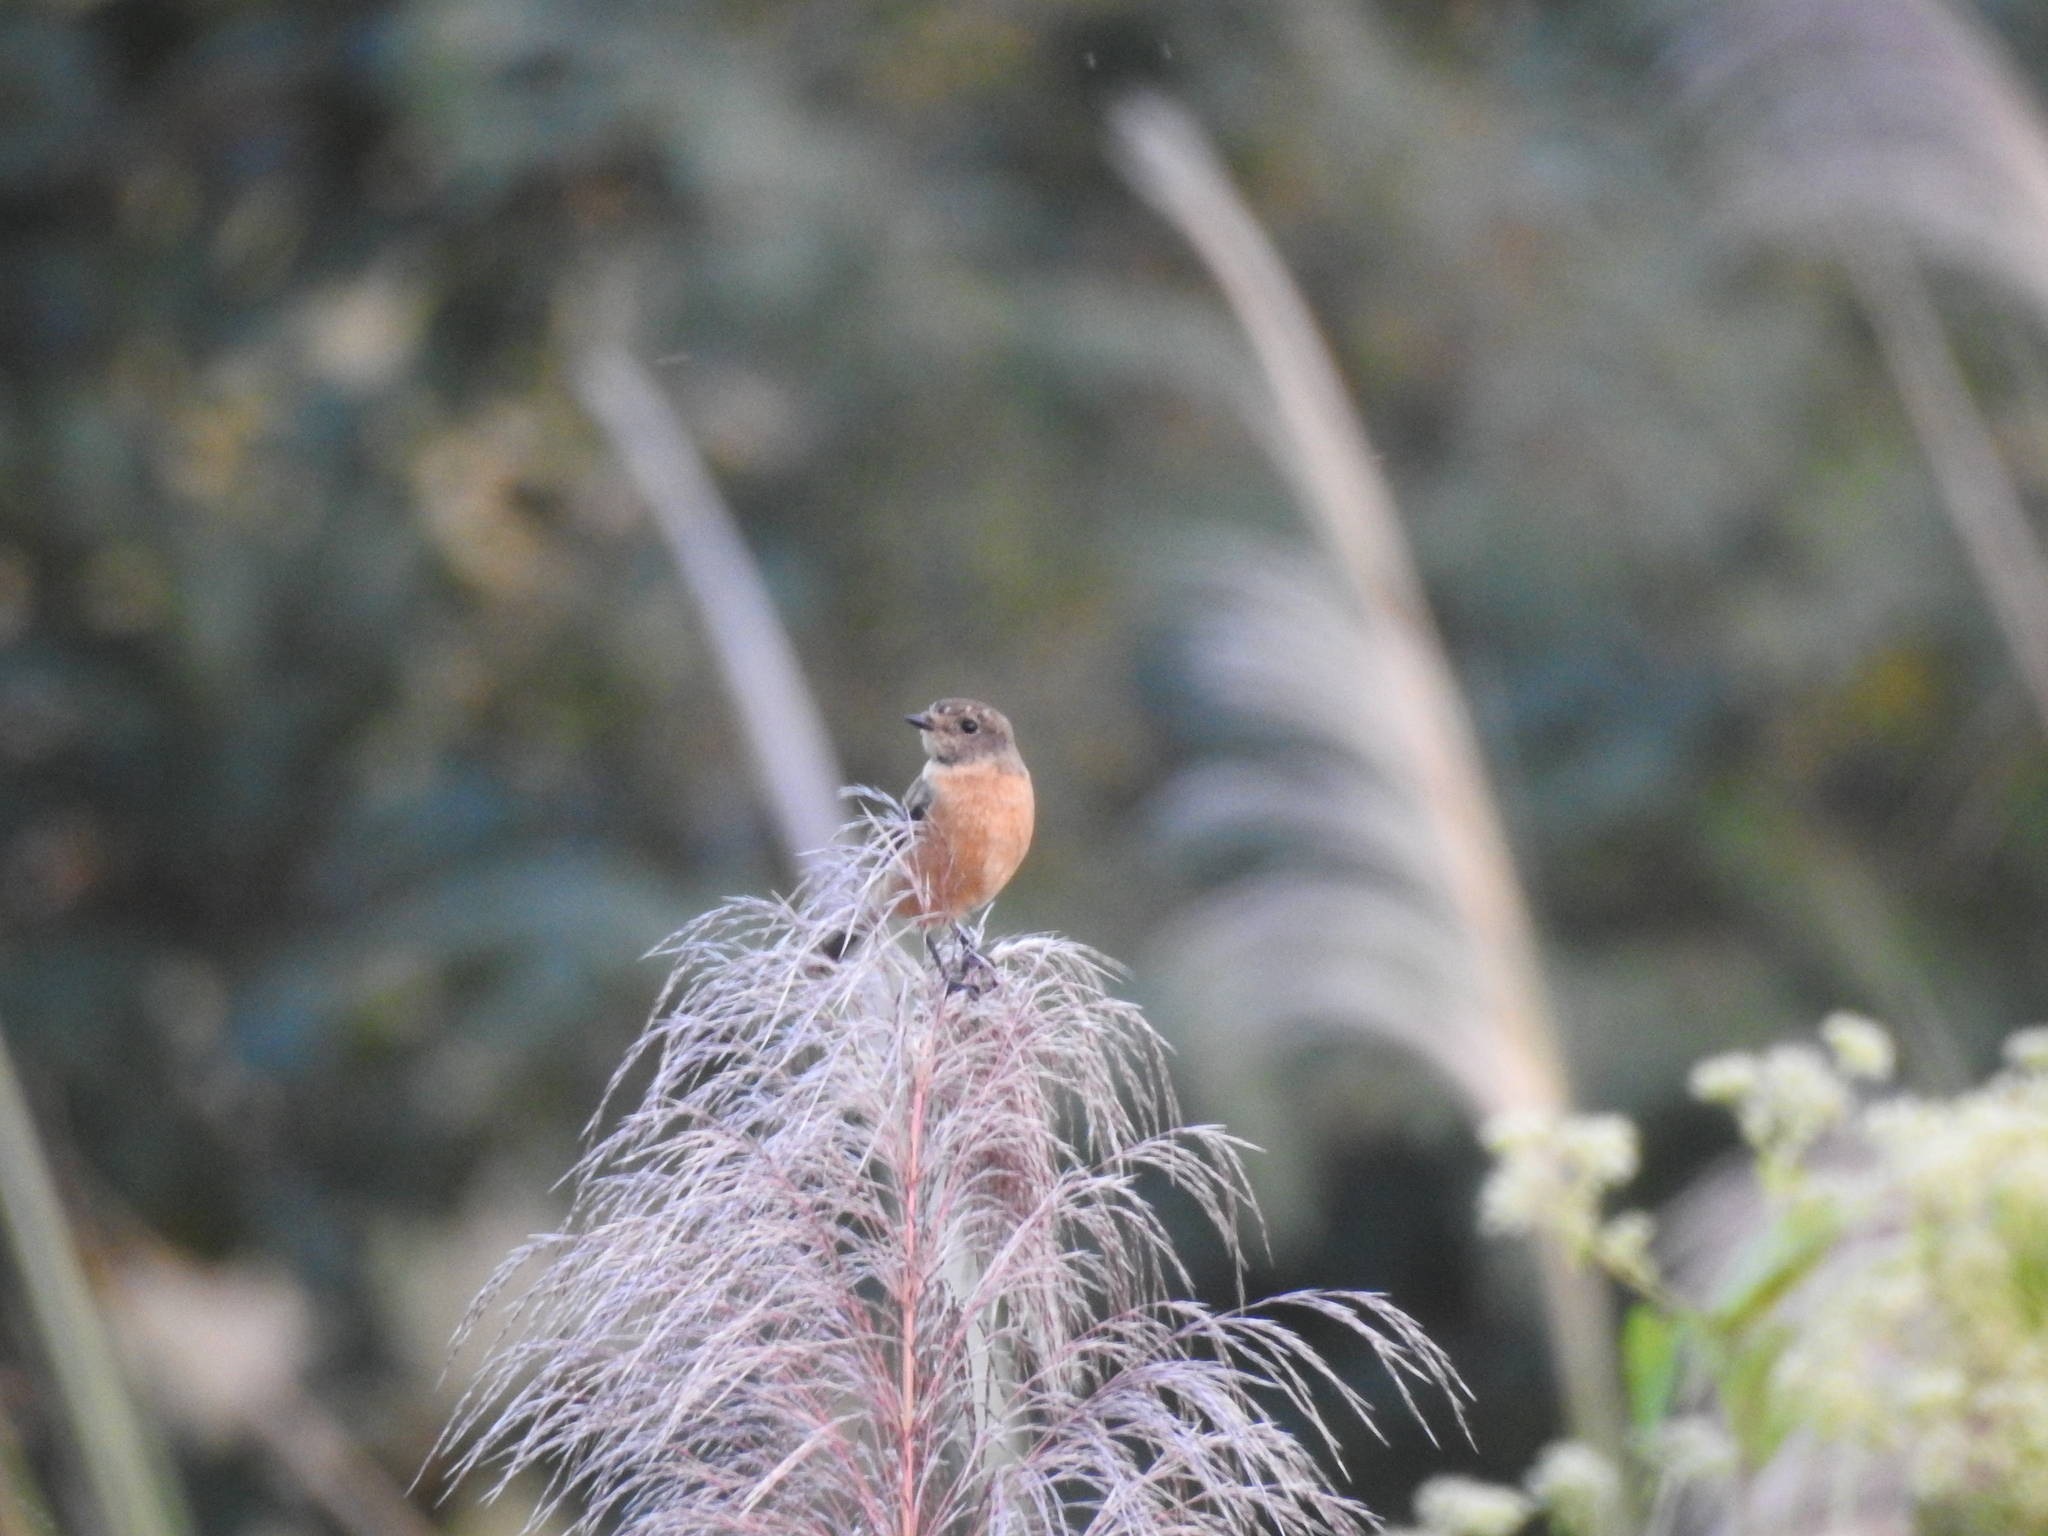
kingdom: Animalia
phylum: Chordata
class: Aves
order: Passeriformes
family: Muscicapidae
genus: Saxicola
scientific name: Saxicola maurus
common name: Siberian stonechat
